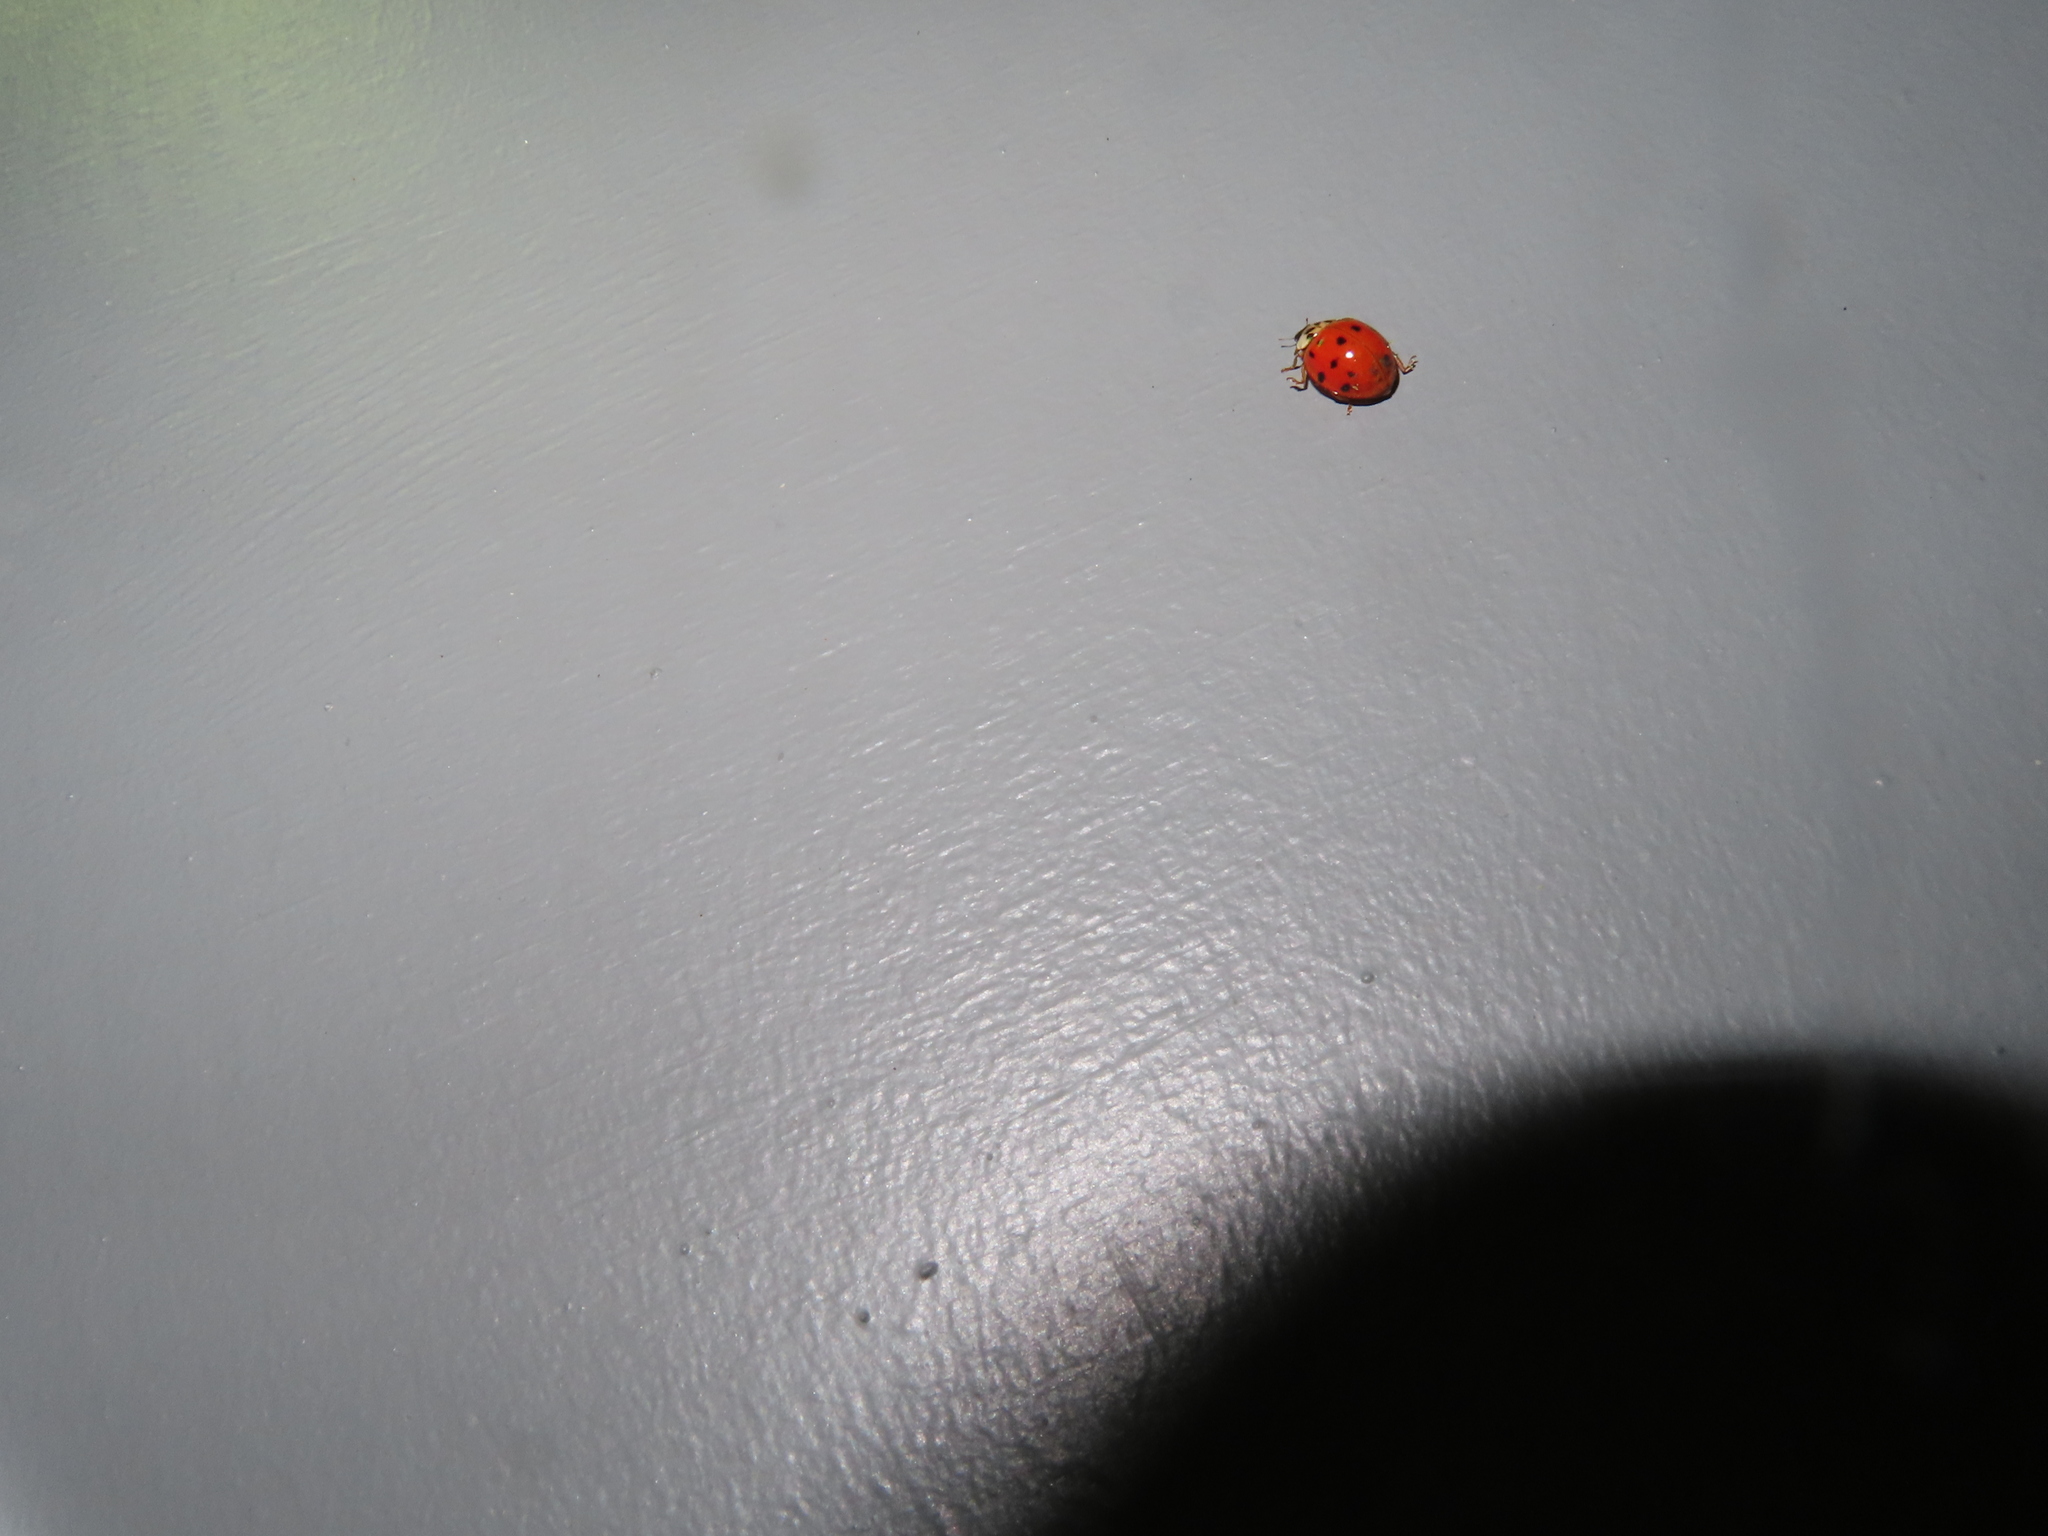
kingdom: Animalia
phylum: Arthropoda
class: Insecta
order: Coleoptera
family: Coccinellidae
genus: Harmonia
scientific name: Harmonia axyridis
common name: Harlequin ladybird
